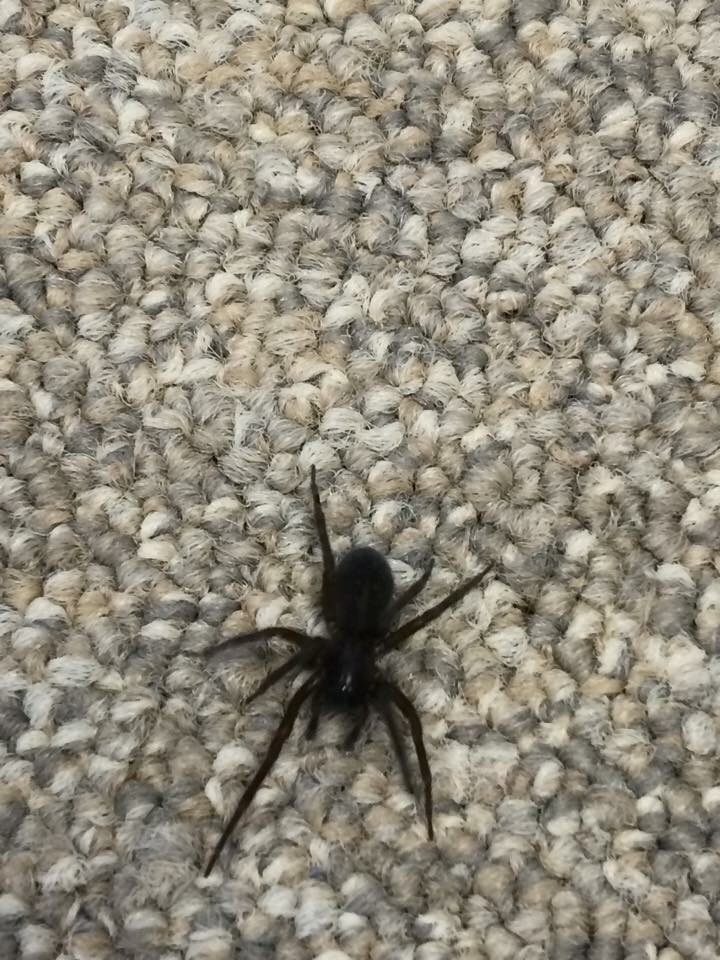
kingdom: Animalia
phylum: Arthropoda
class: Arachnida
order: Araneae
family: Amaurobiidae
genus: Amaurobius
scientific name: Amaurobius ferox
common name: Black laceweaver
